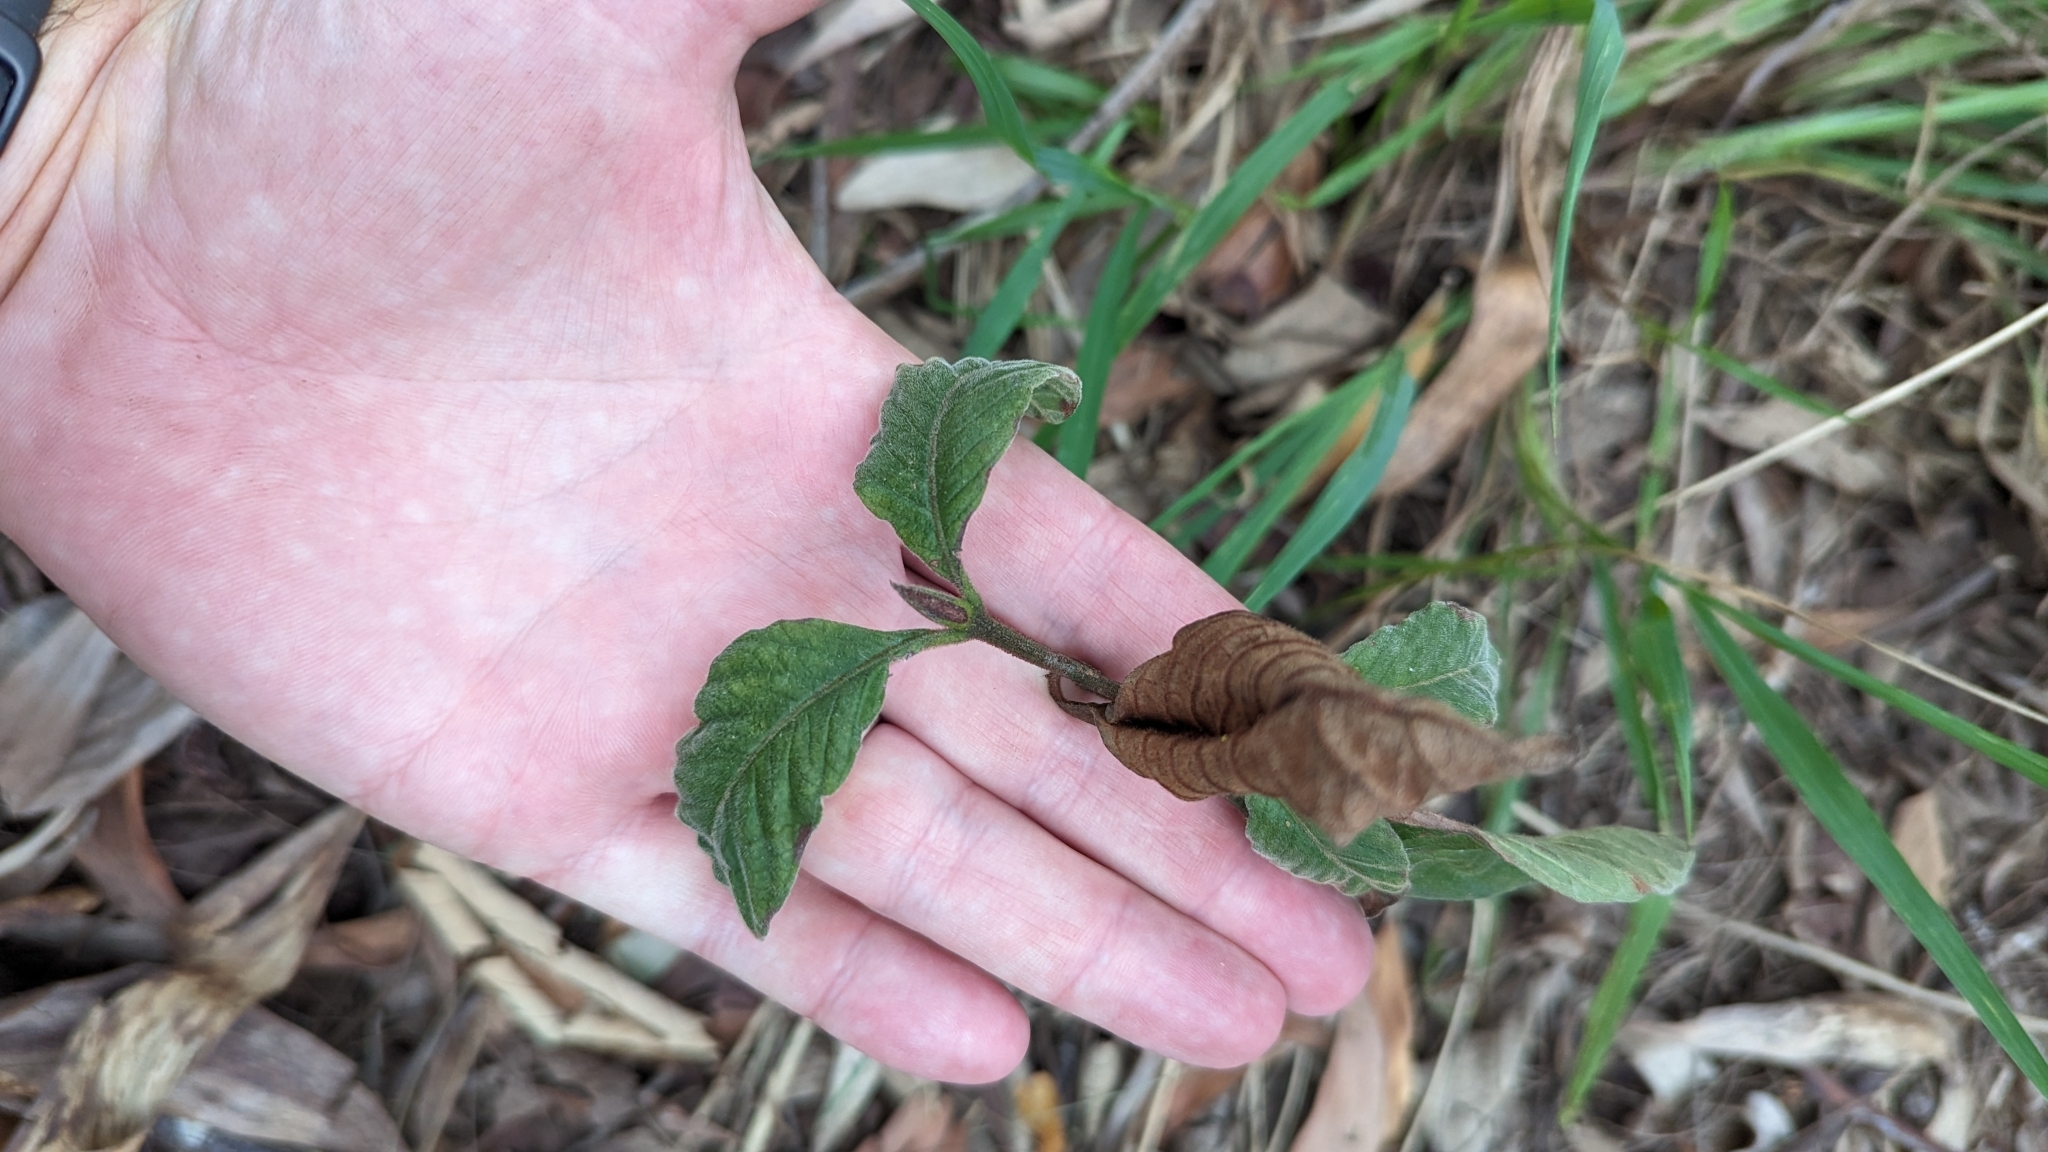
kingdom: Plantae
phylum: Tracheophyta
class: Magnoliopsida
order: Gentianales
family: Rubiaceae
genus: Psychotria
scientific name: Psychotria loniceroides
